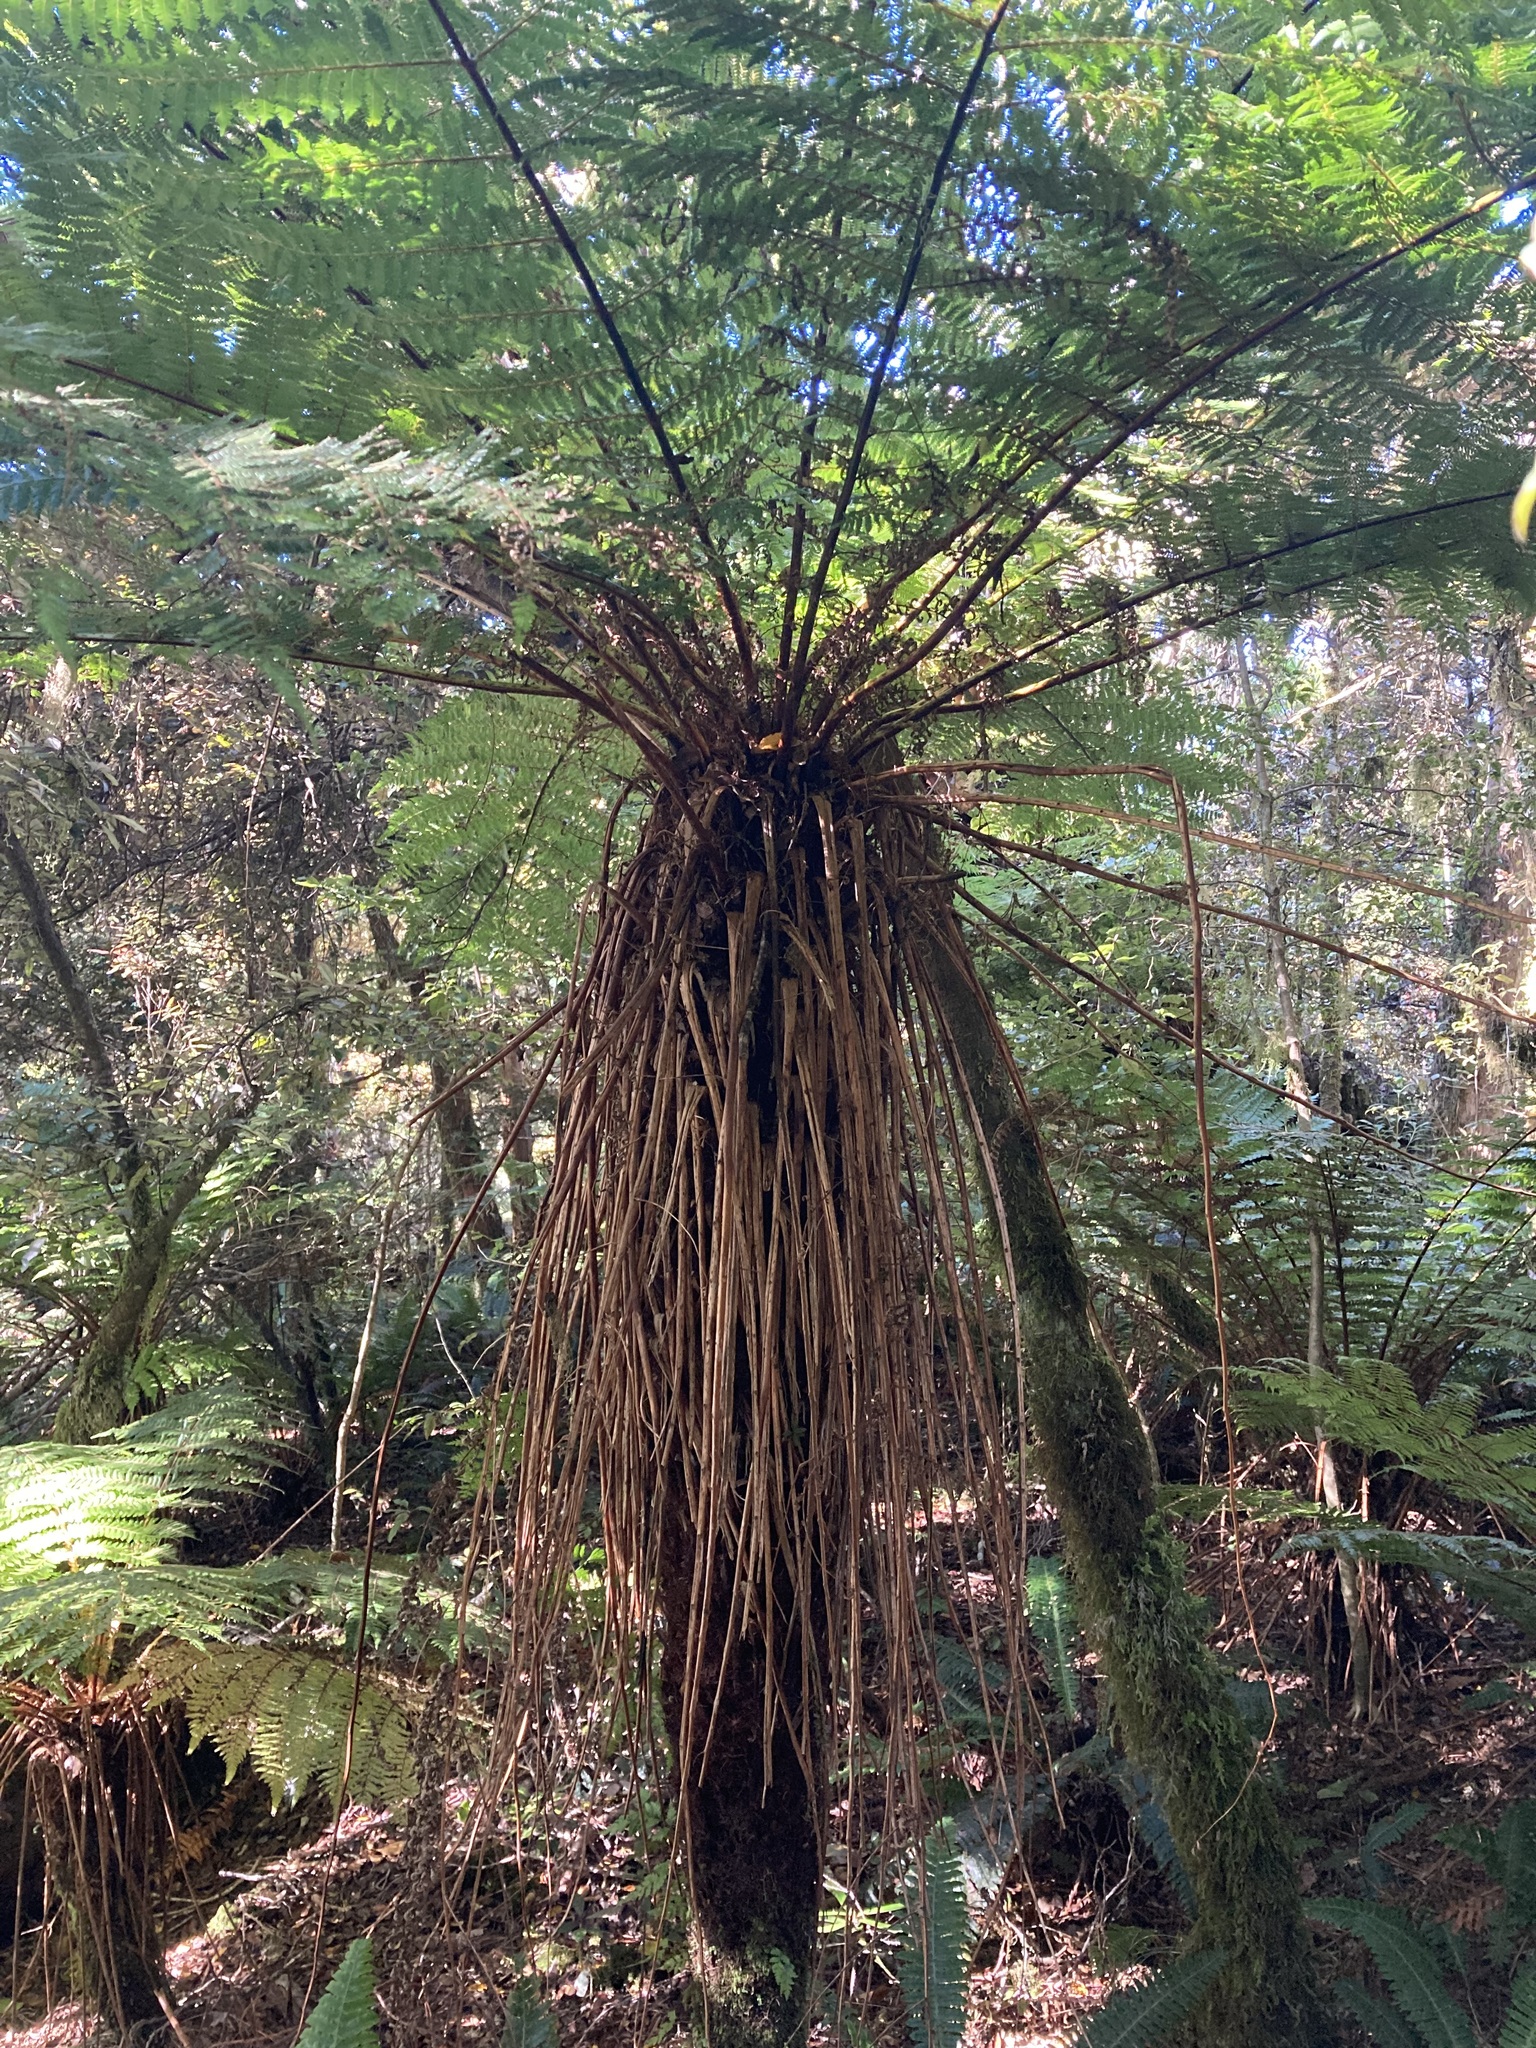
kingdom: Plantae
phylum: Tracheophyta
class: Polypodiopsida
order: Cyatheales
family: Cyatheaceae
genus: Alsophila
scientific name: Alsophila smithii
